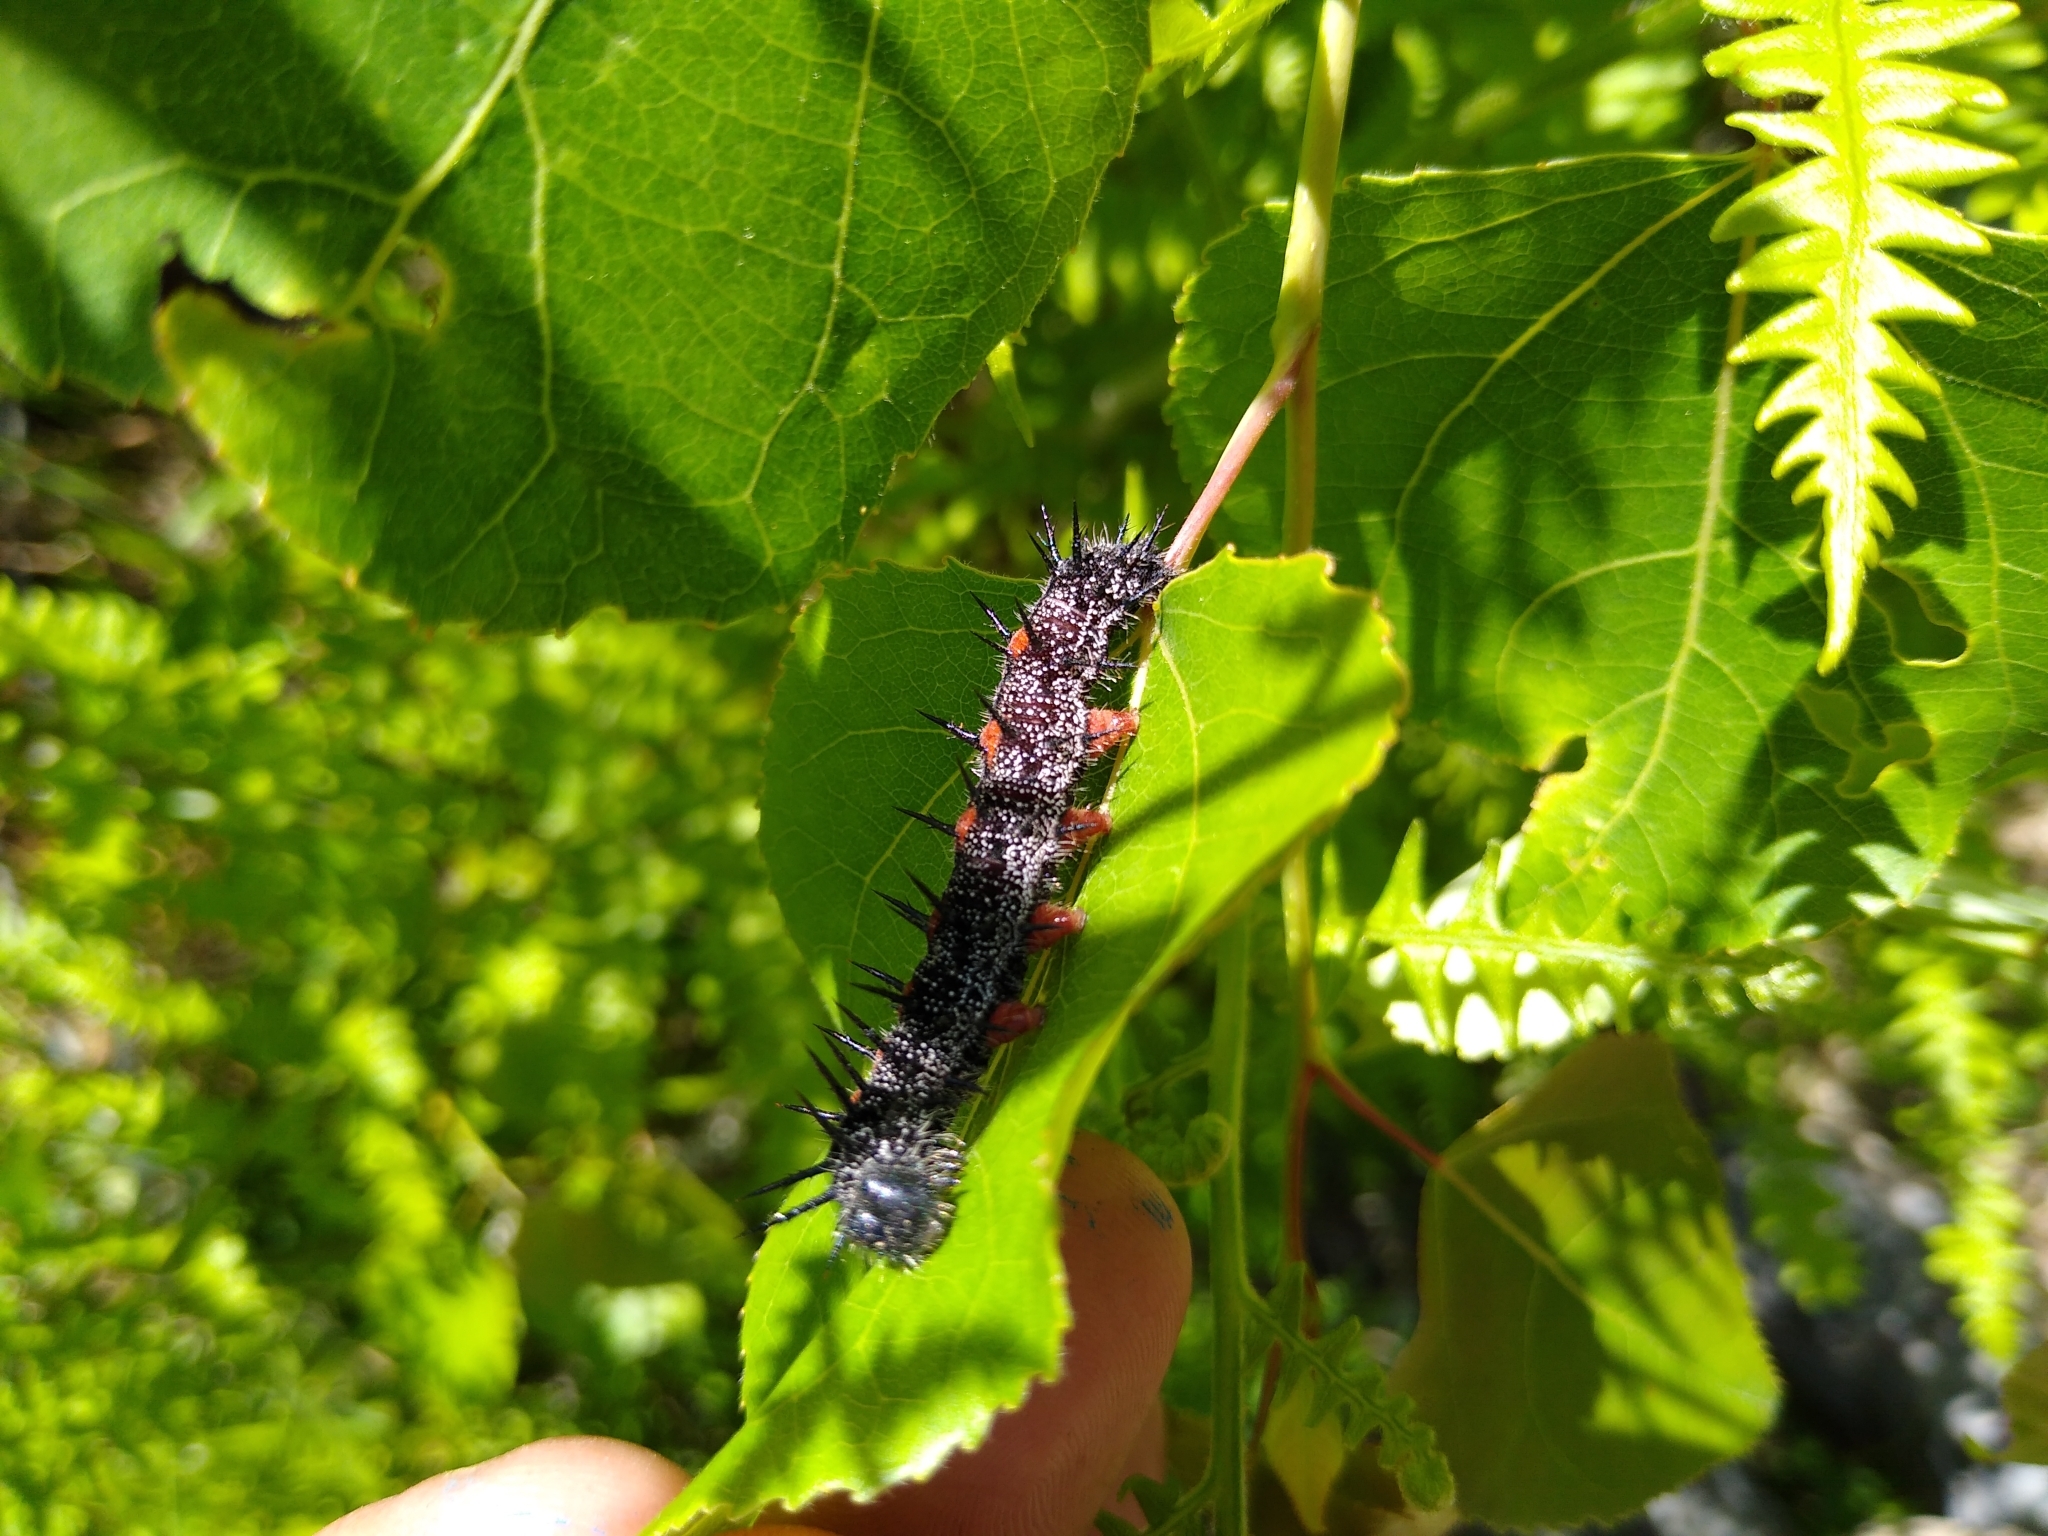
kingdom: Animalia
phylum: Arthropoda
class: Insecta
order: Lepidoptera
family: Nymphalidae
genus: Nymphalis
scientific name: Nymphalis antiopa
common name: Camberwell beauty
